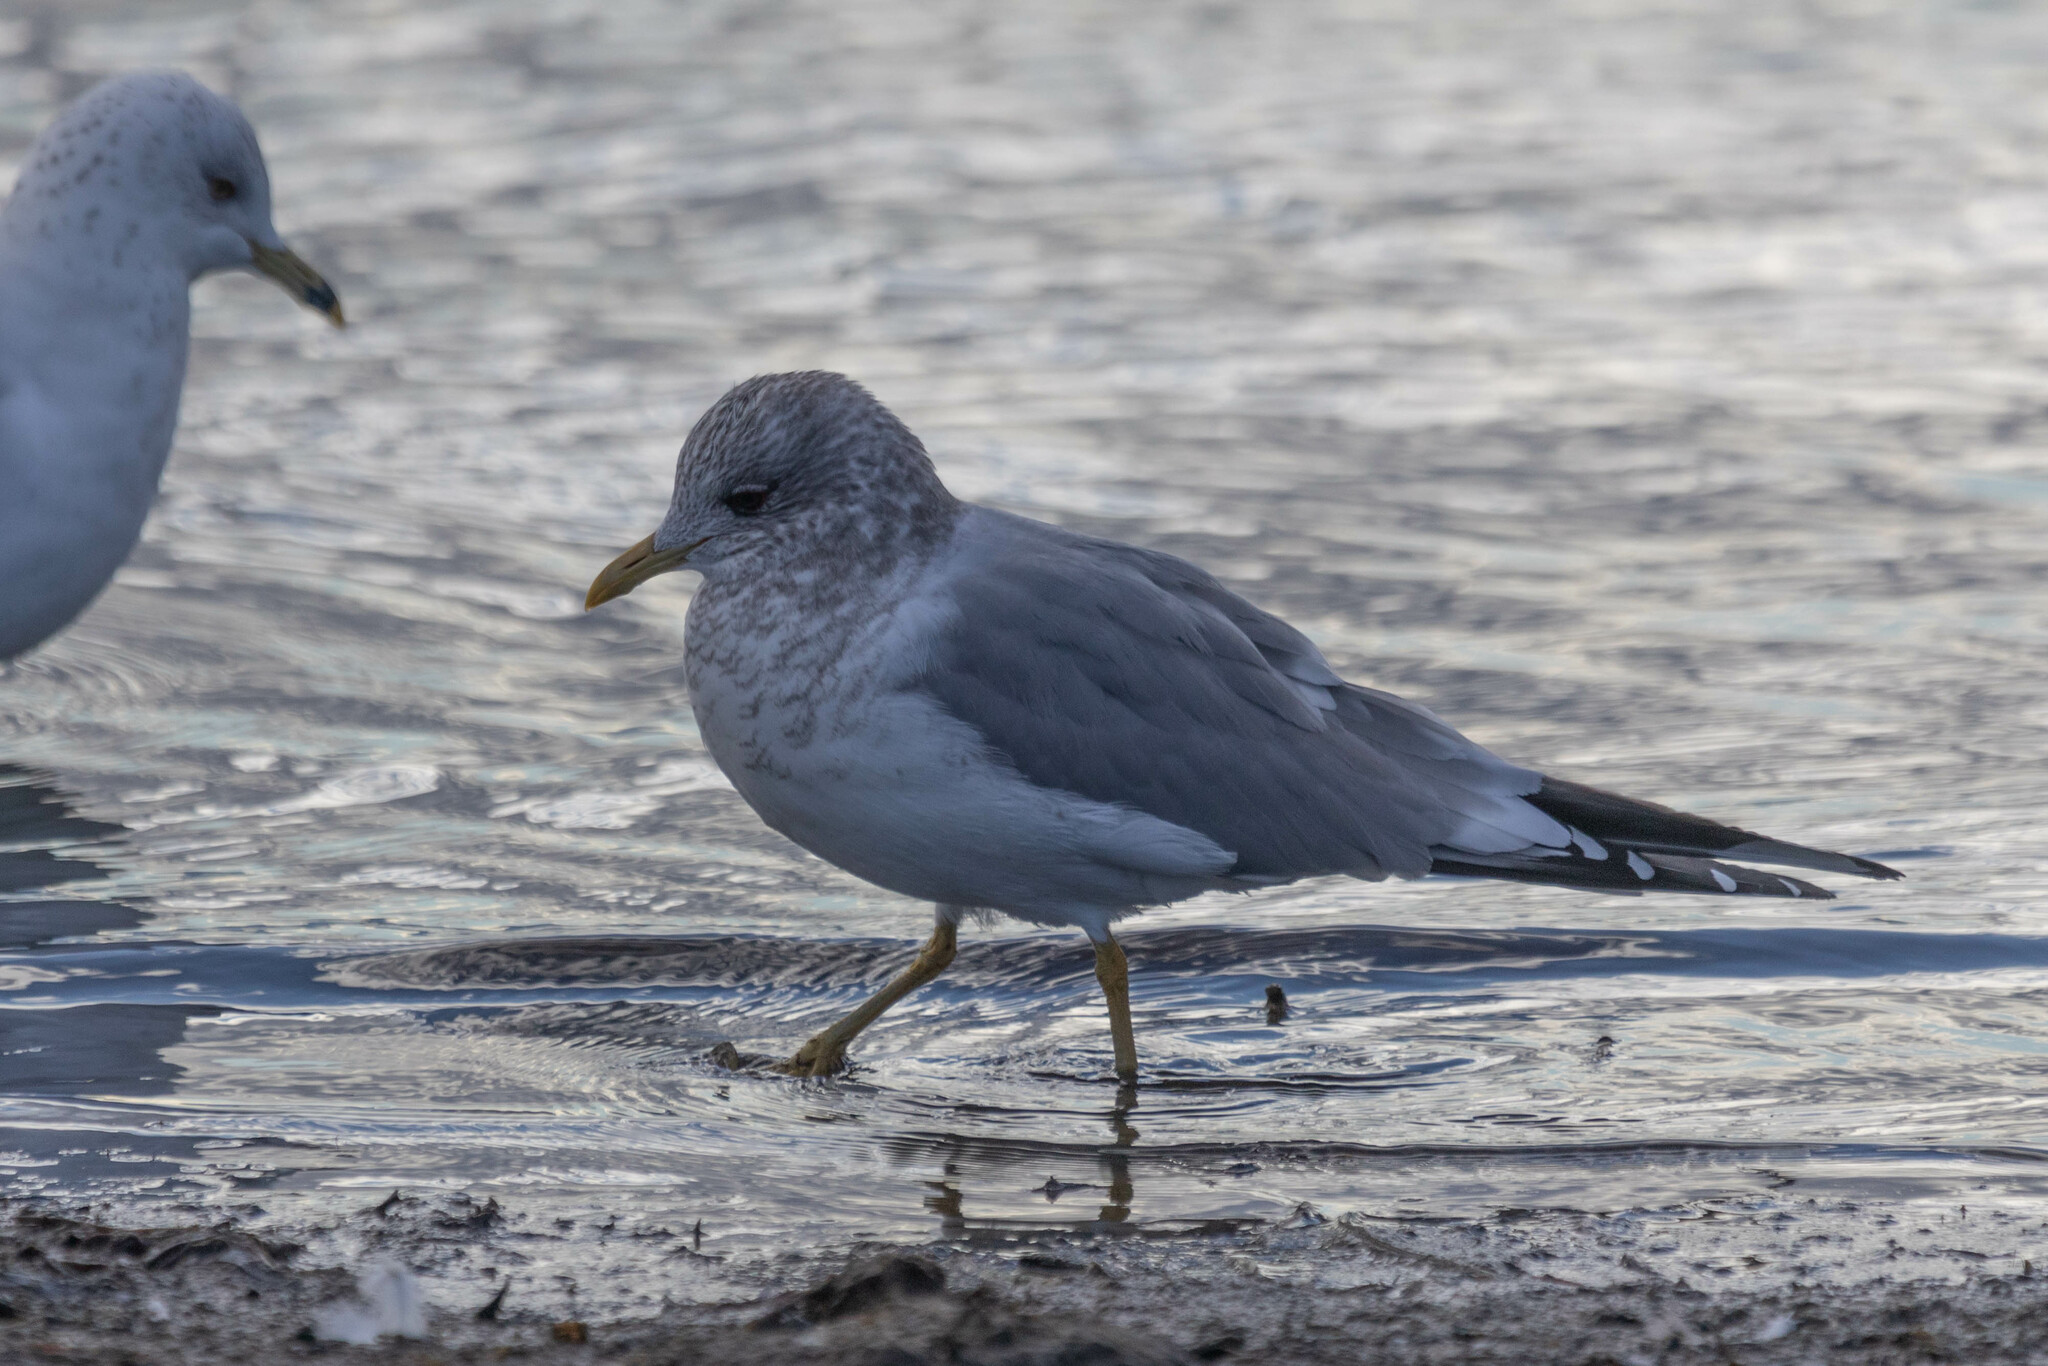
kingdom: Animalia
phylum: Chordata
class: Aves
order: Charadriiformes
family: Laridae
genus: Larus
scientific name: Larus brachyrhynchus
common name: Short-billed gull
